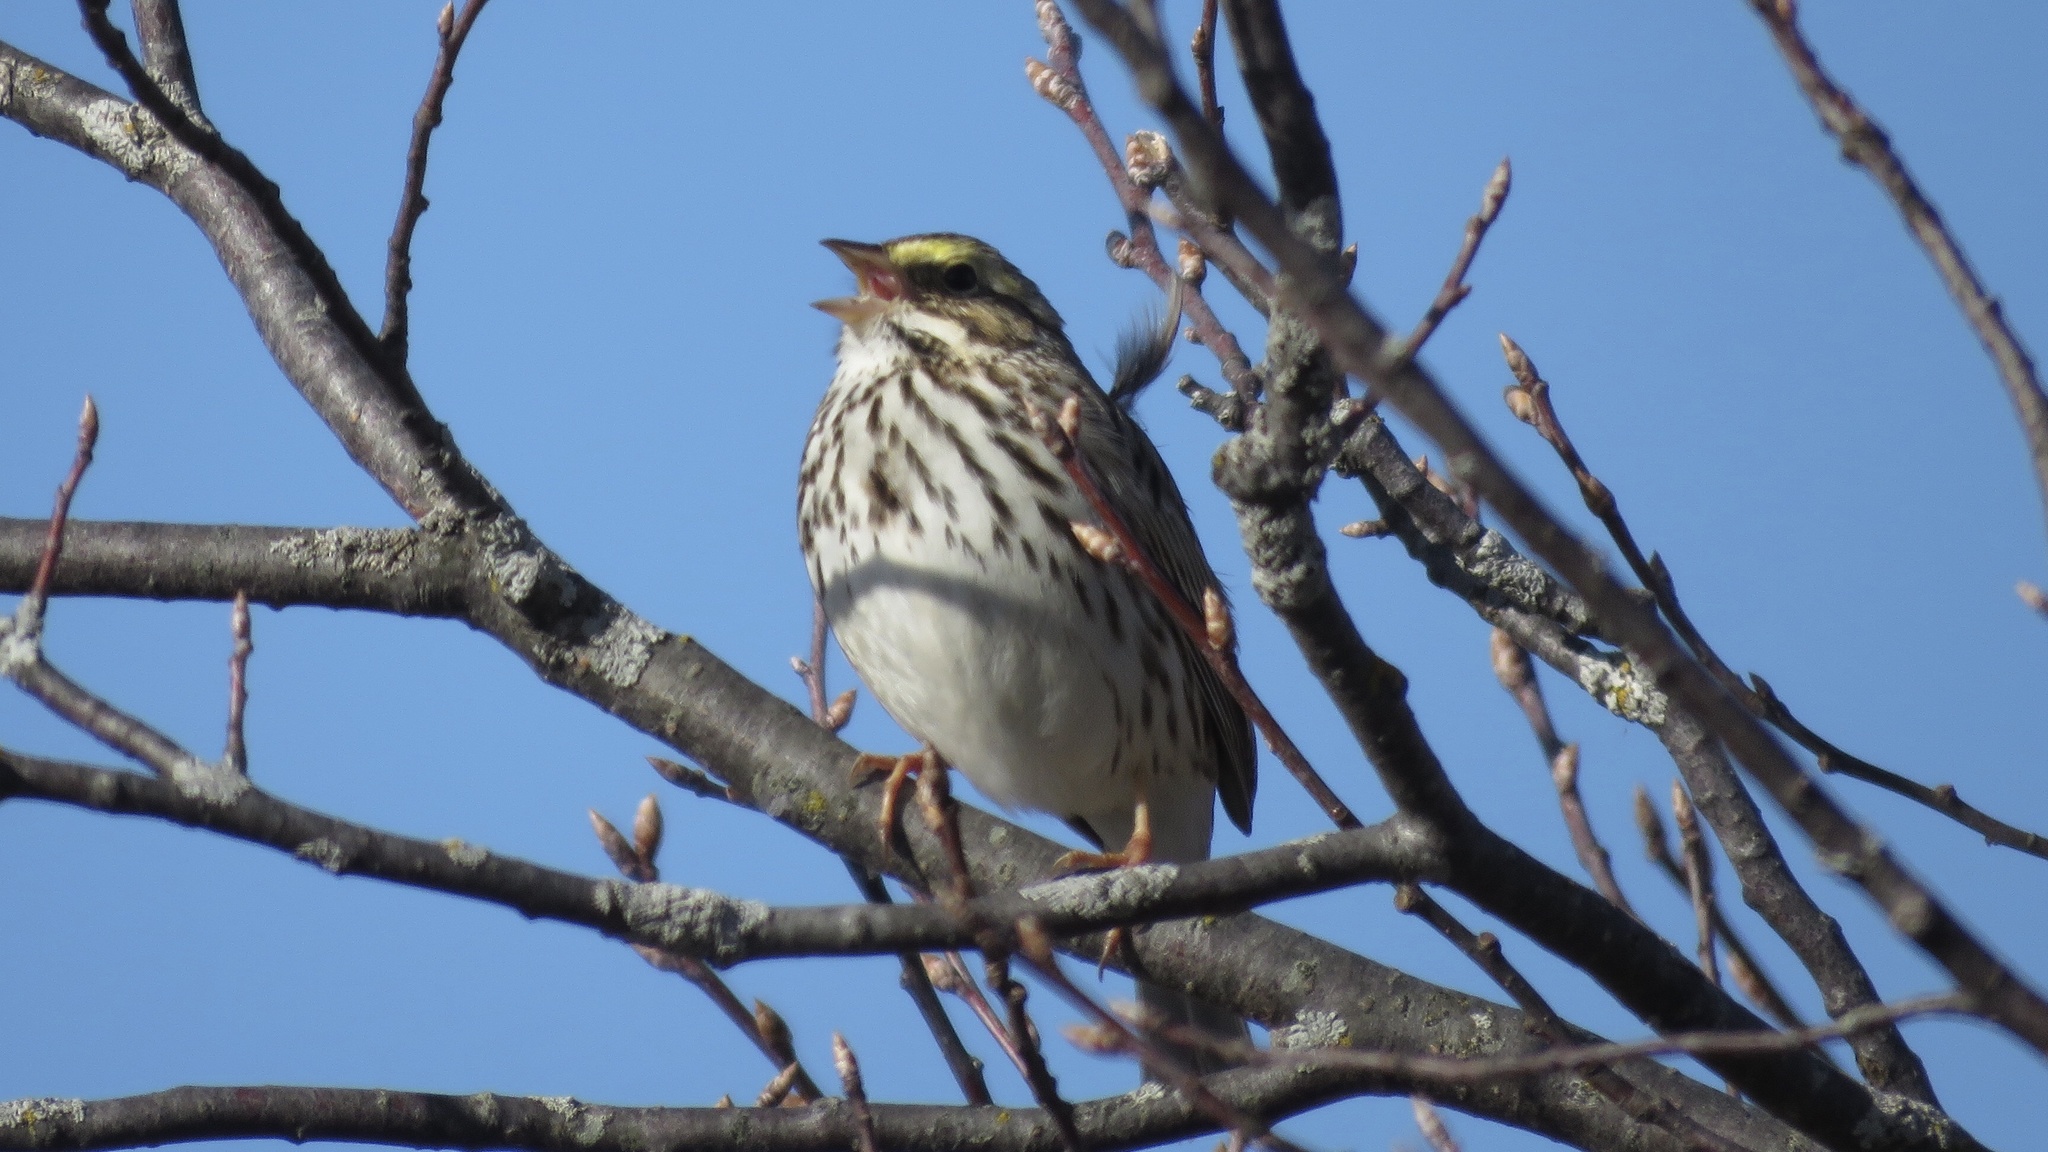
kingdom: Animalia
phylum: Chordata
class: Aves
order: Passeriformes
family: Passerellidae
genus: Passerculus
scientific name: Passerculus sandwichensis
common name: Savannah sparrow
